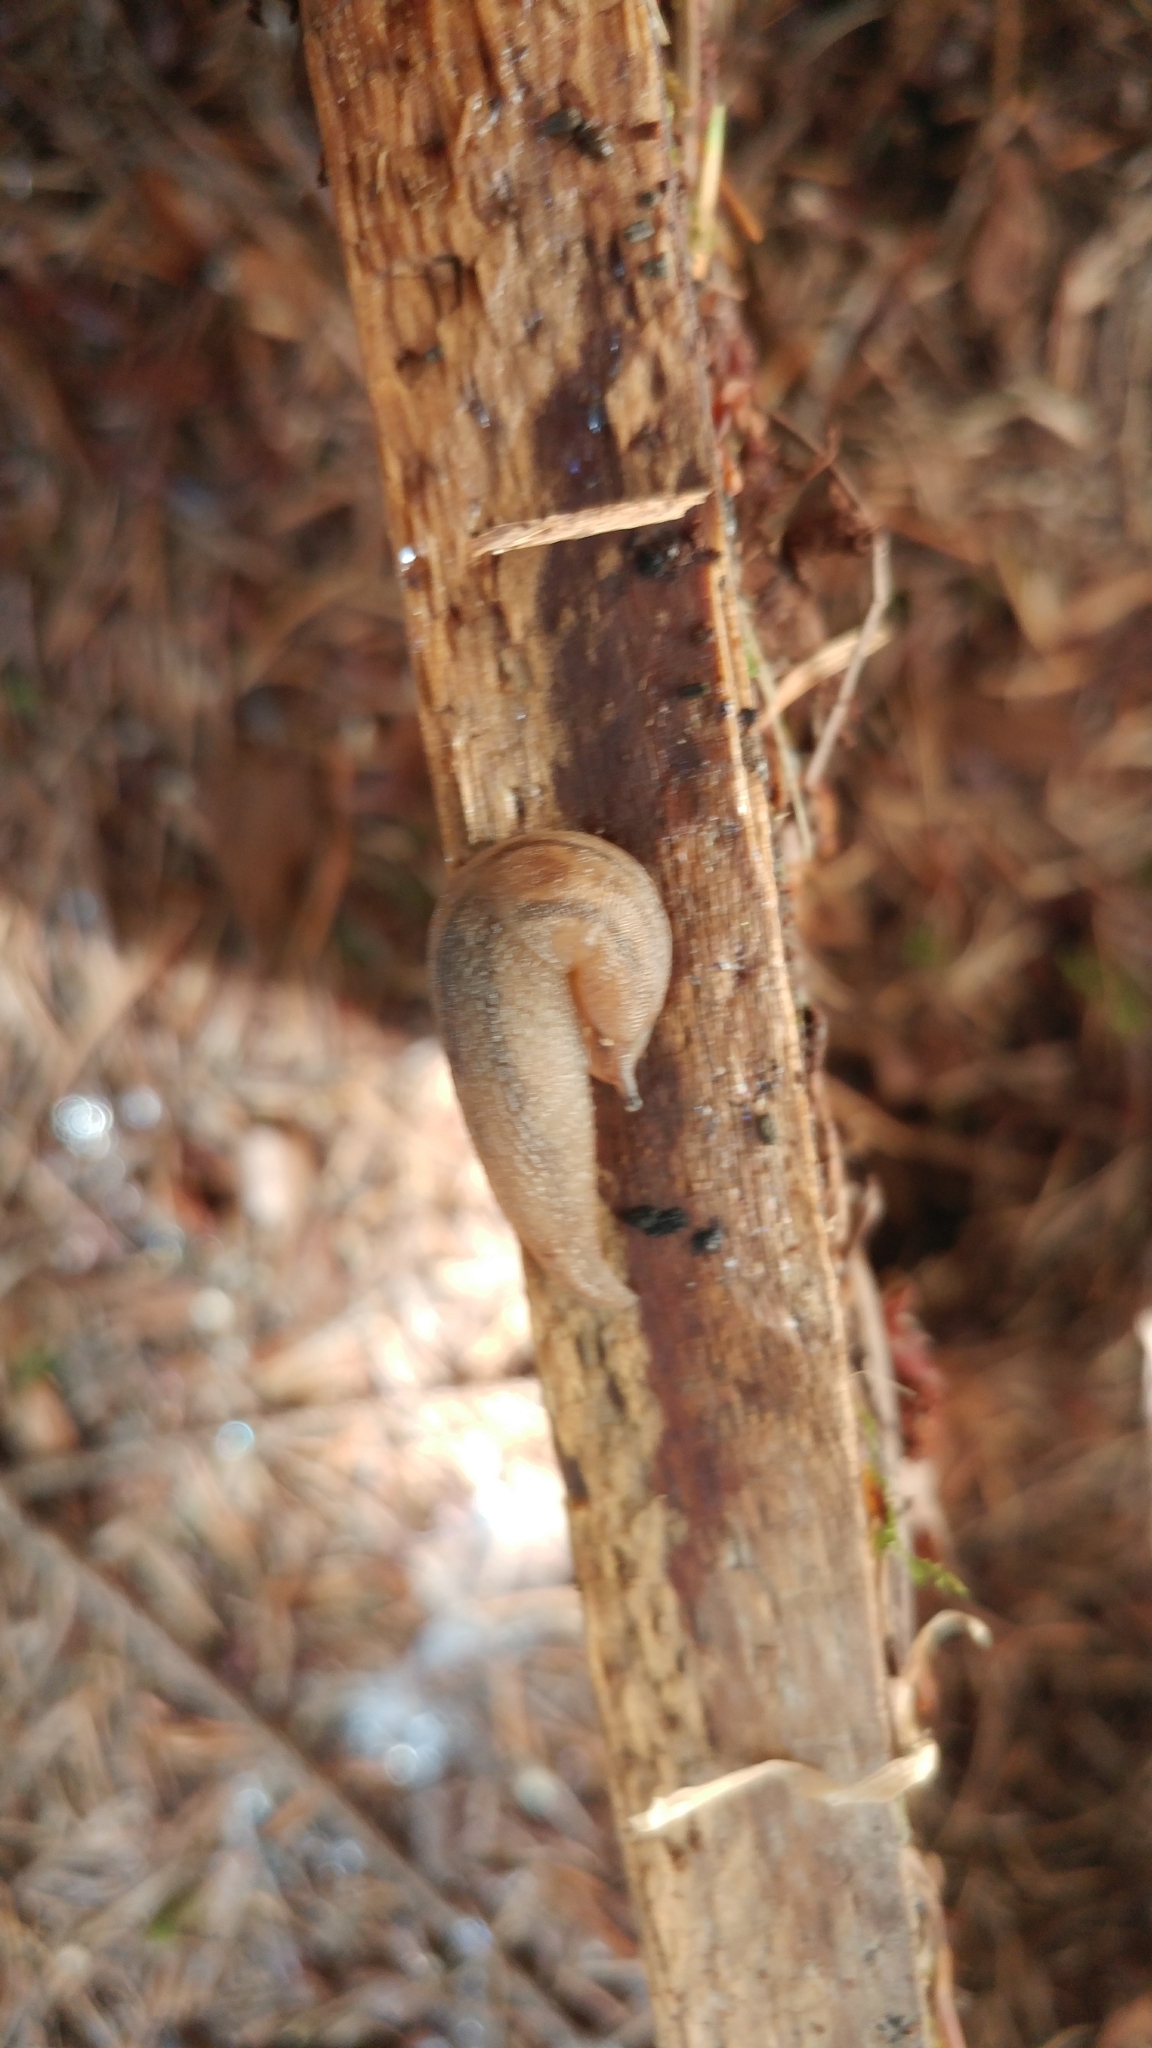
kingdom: Animalia
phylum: Mollusca
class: Gastropoda
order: Stylommatophora
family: Limacidae
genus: Ambigolimax
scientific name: Ambigolimax
